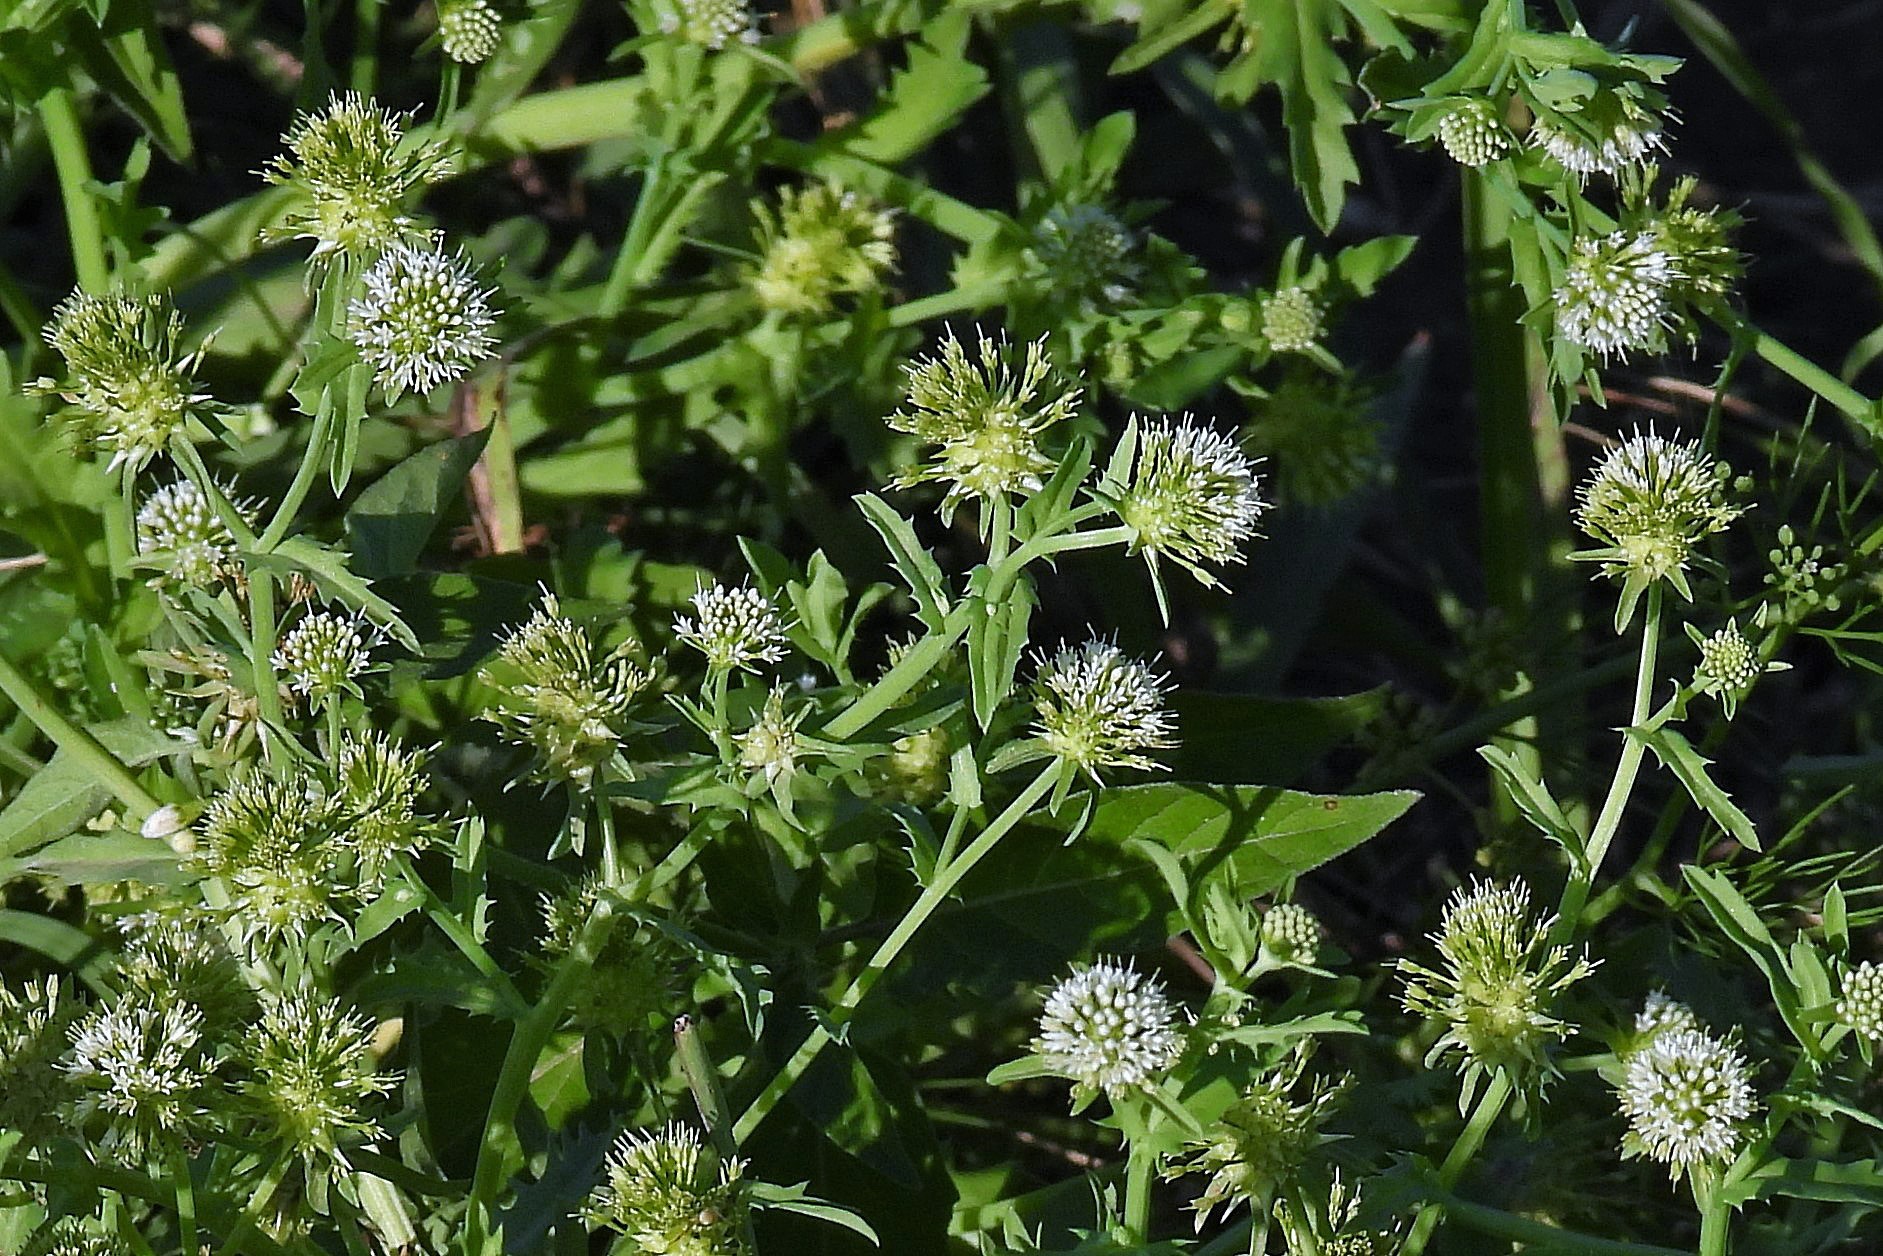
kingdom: Plantae
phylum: Tracheophyta
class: Magnoliopsida
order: Asterales
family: Calyceraceae
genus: Acicarpha
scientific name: Acicarpha tribuloides
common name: Madam gorgon
